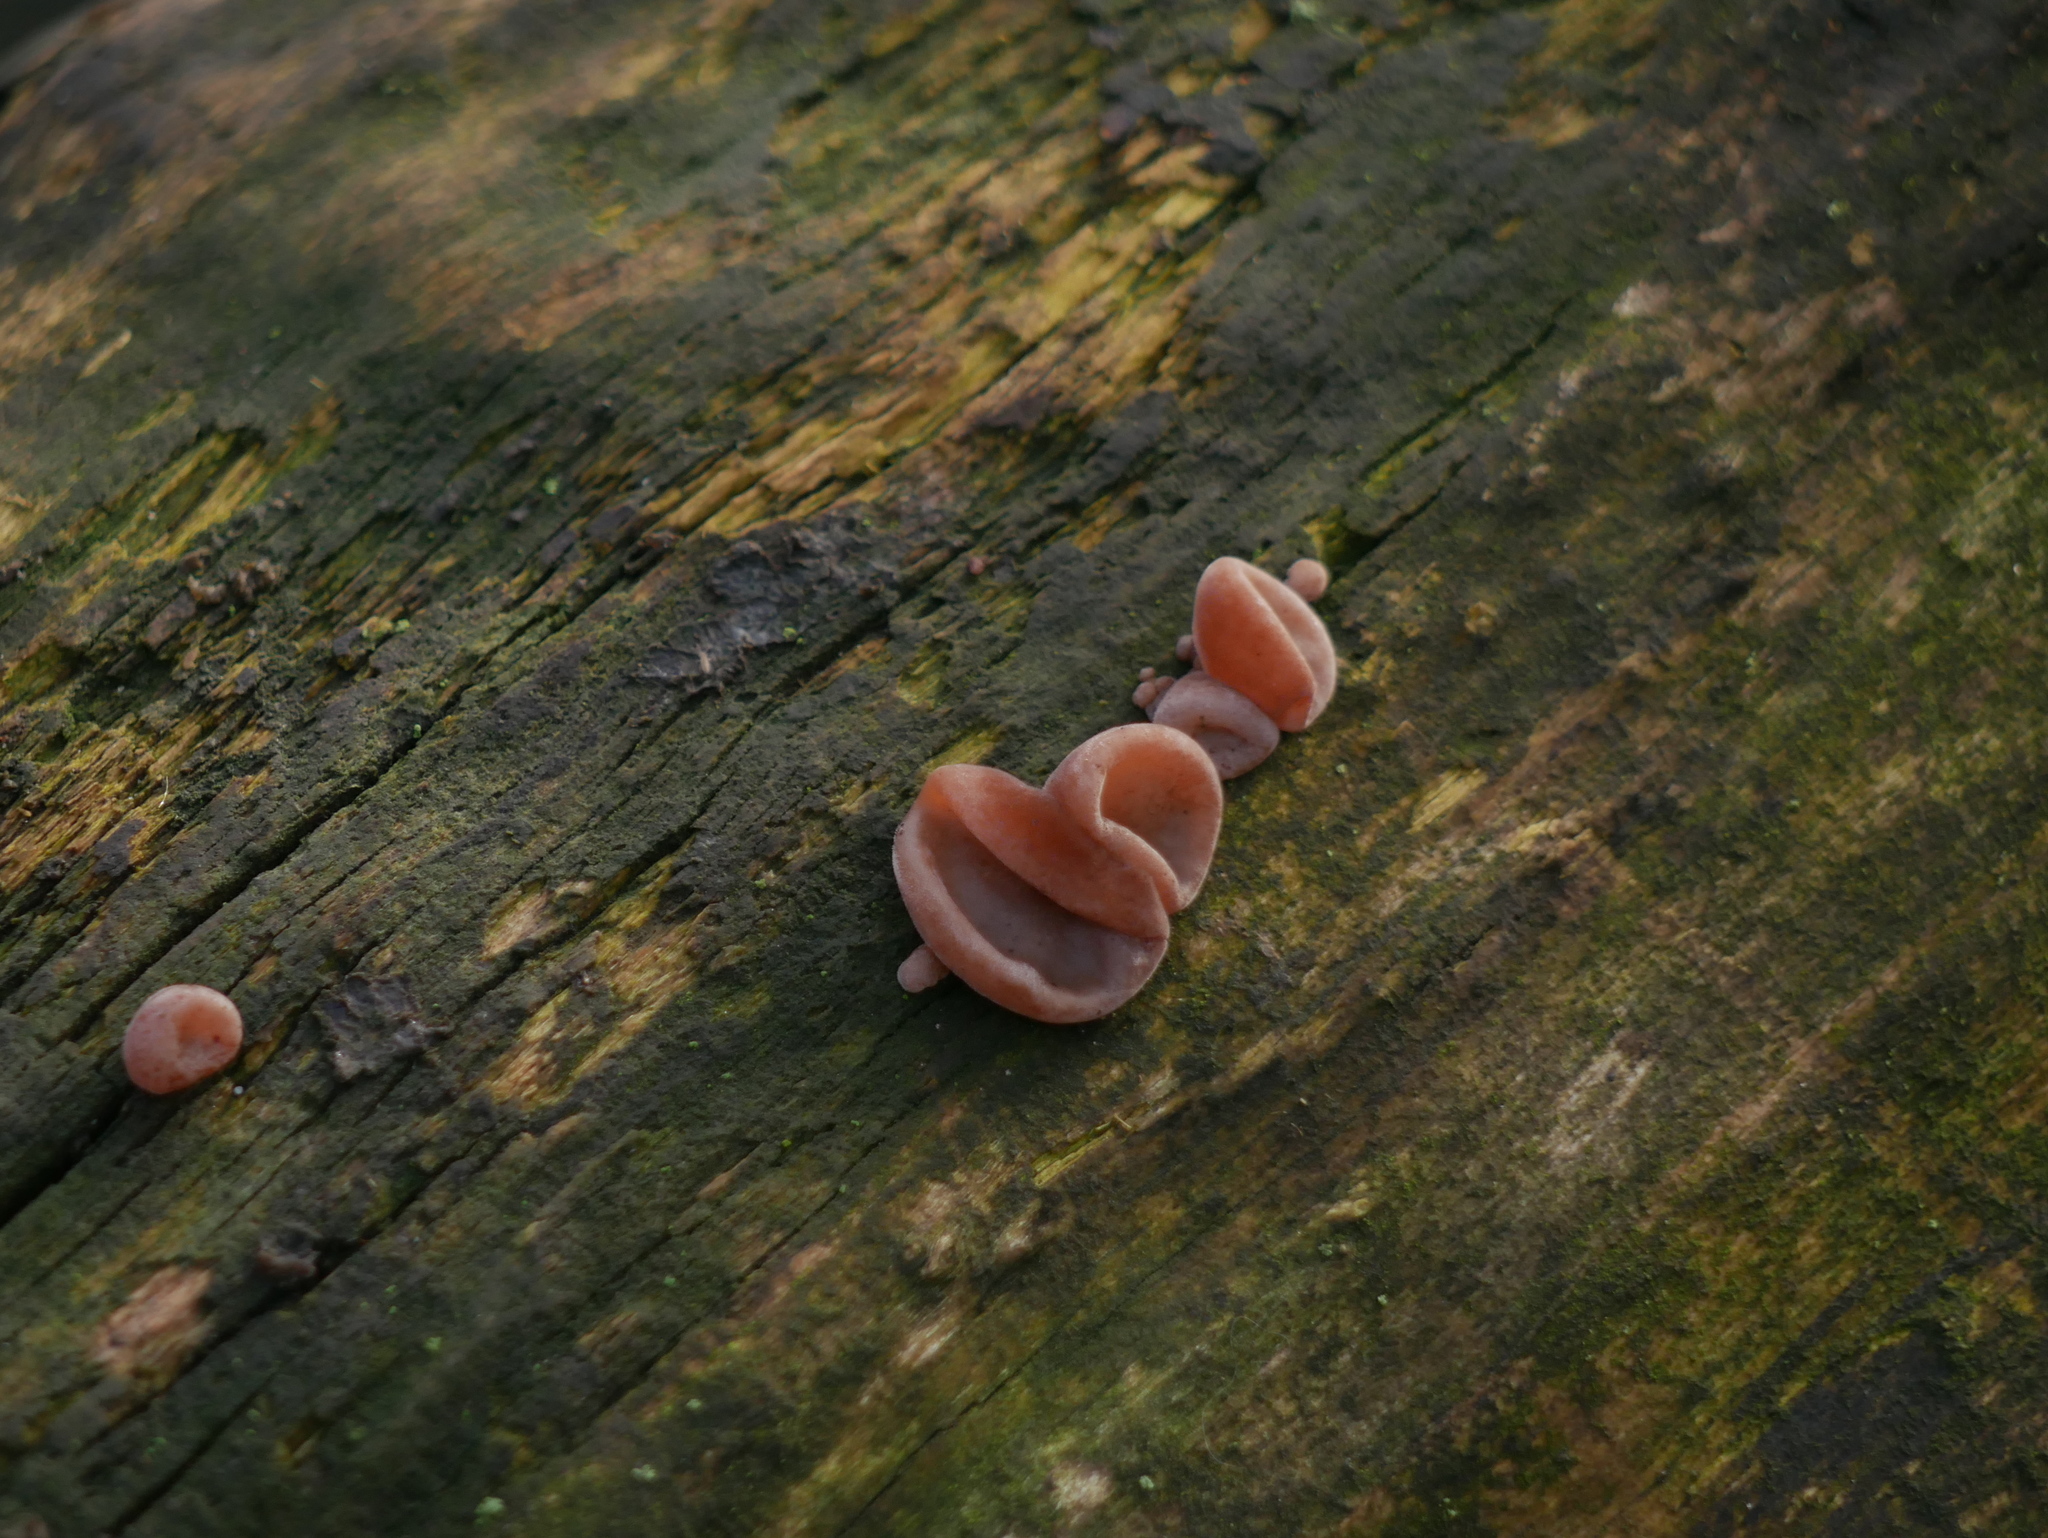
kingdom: Fungi
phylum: Basidiomycota
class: Agaricomycetes
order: Auriculariales
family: Auriculariaceae
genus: Auricularia
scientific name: Auricularia auricula-judae
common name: Jelly ear
